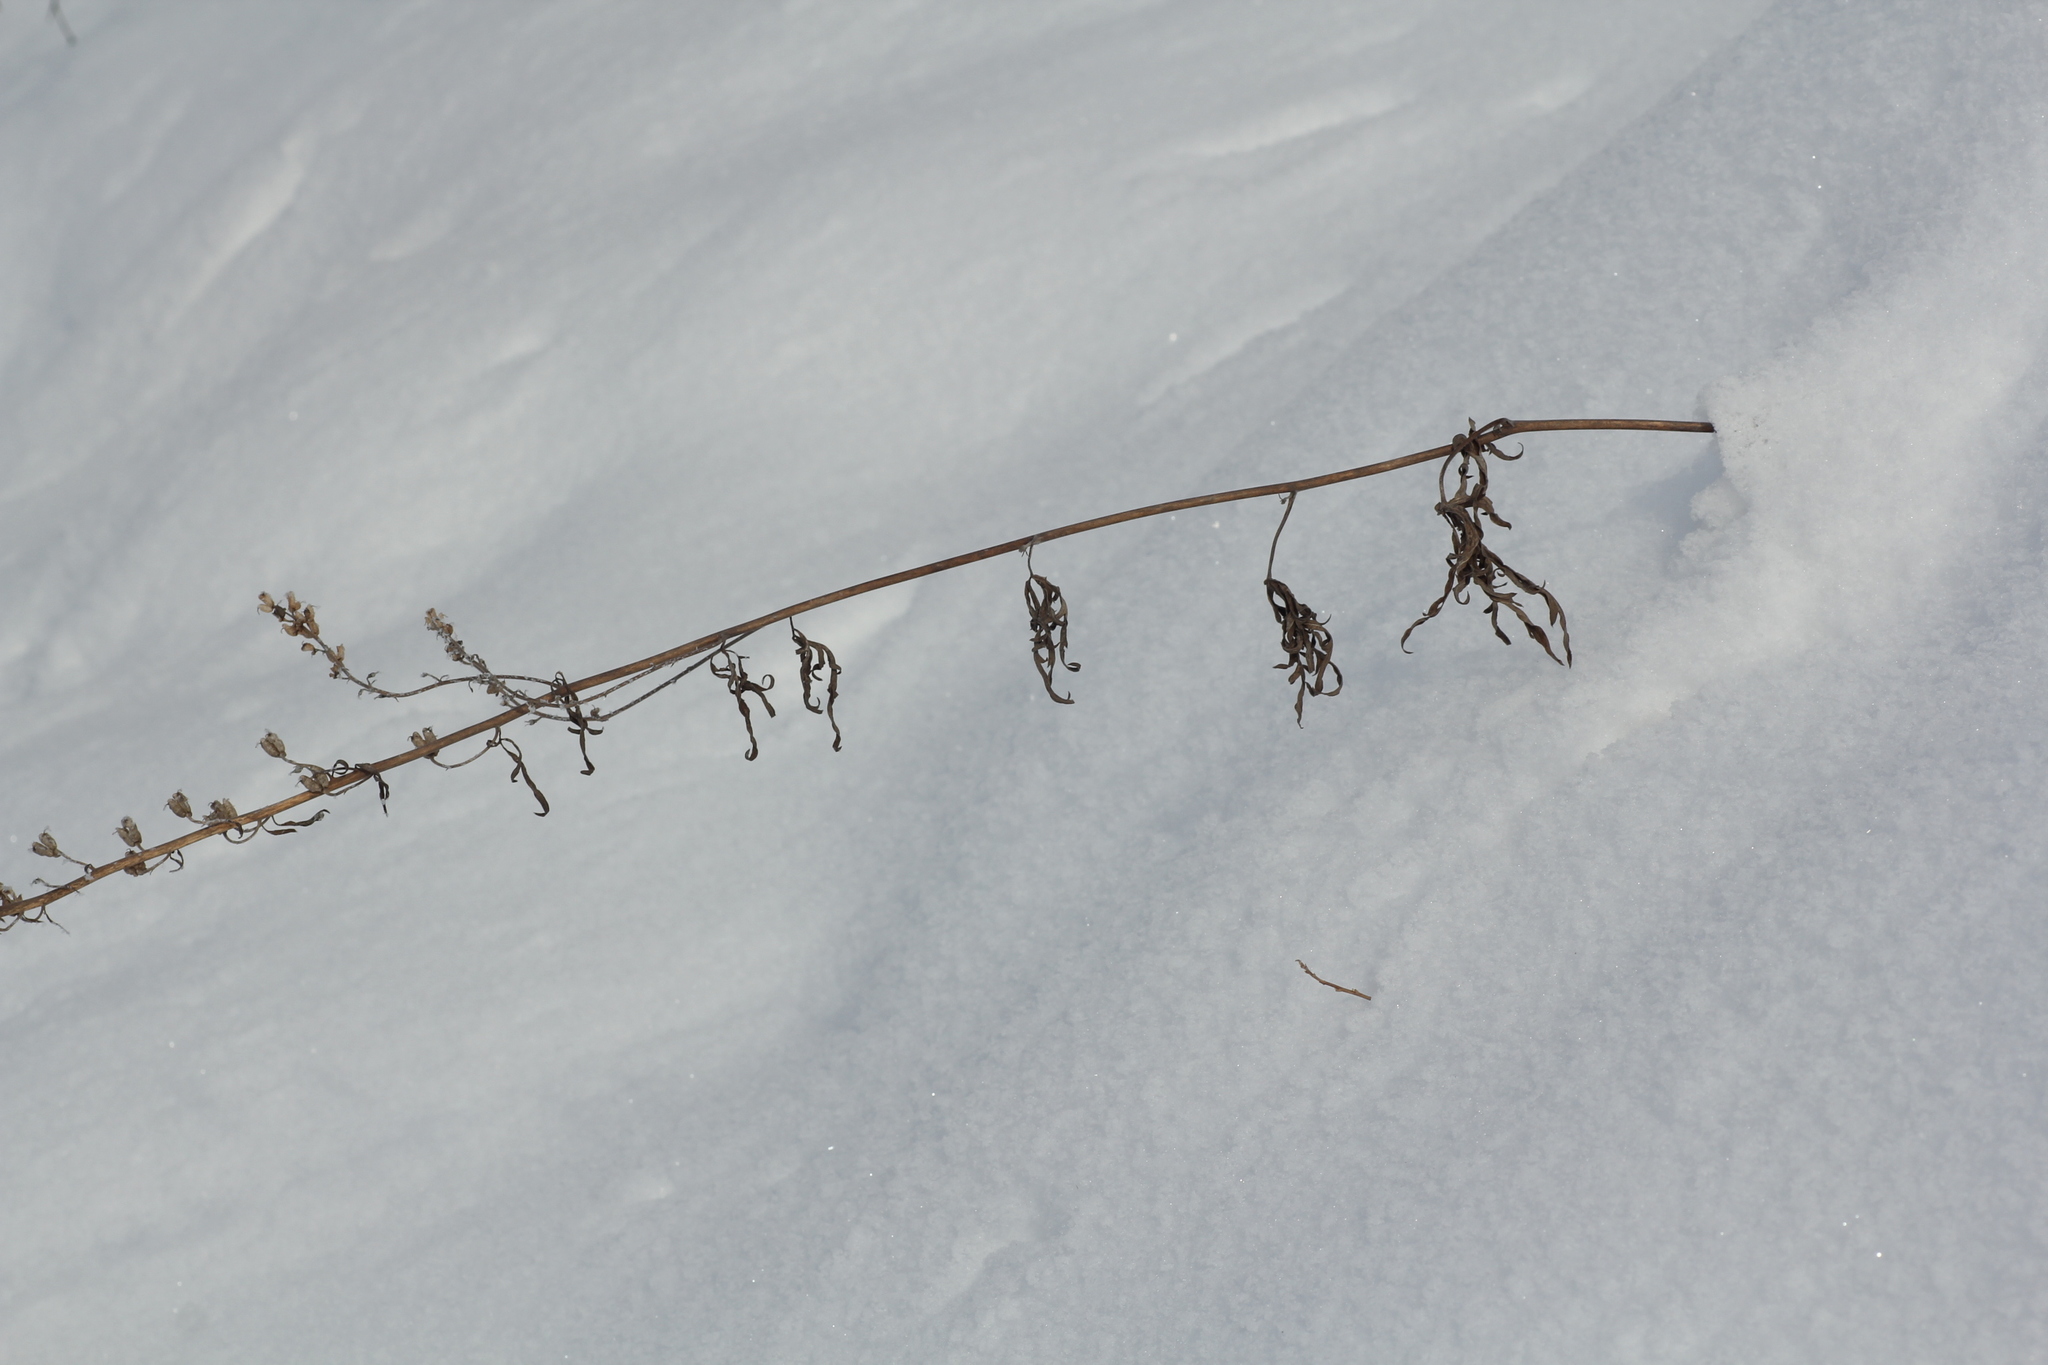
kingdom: Plantae
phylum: Tracheophyta
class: Magnoliopsida
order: Ranunculales
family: Ranunculaceae
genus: Aconitum
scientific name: Aconitum barbatum
